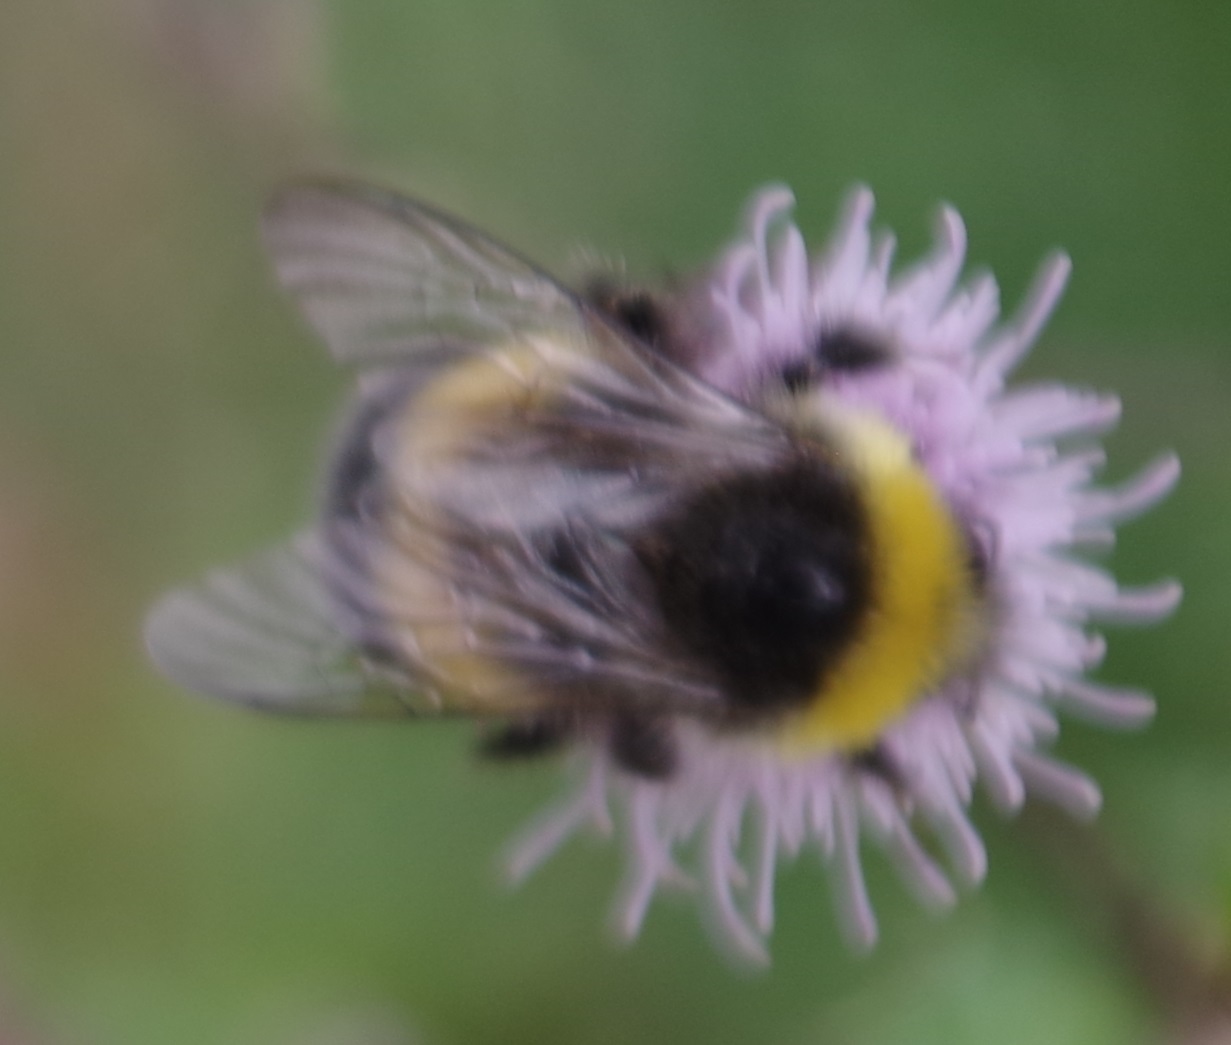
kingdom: Animalia
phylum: Arthropoda
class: Insecta
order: Hymenoptera
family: Apidae
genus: Bombus
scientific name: Bombus lucorum
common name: White-tailed bumblebee
